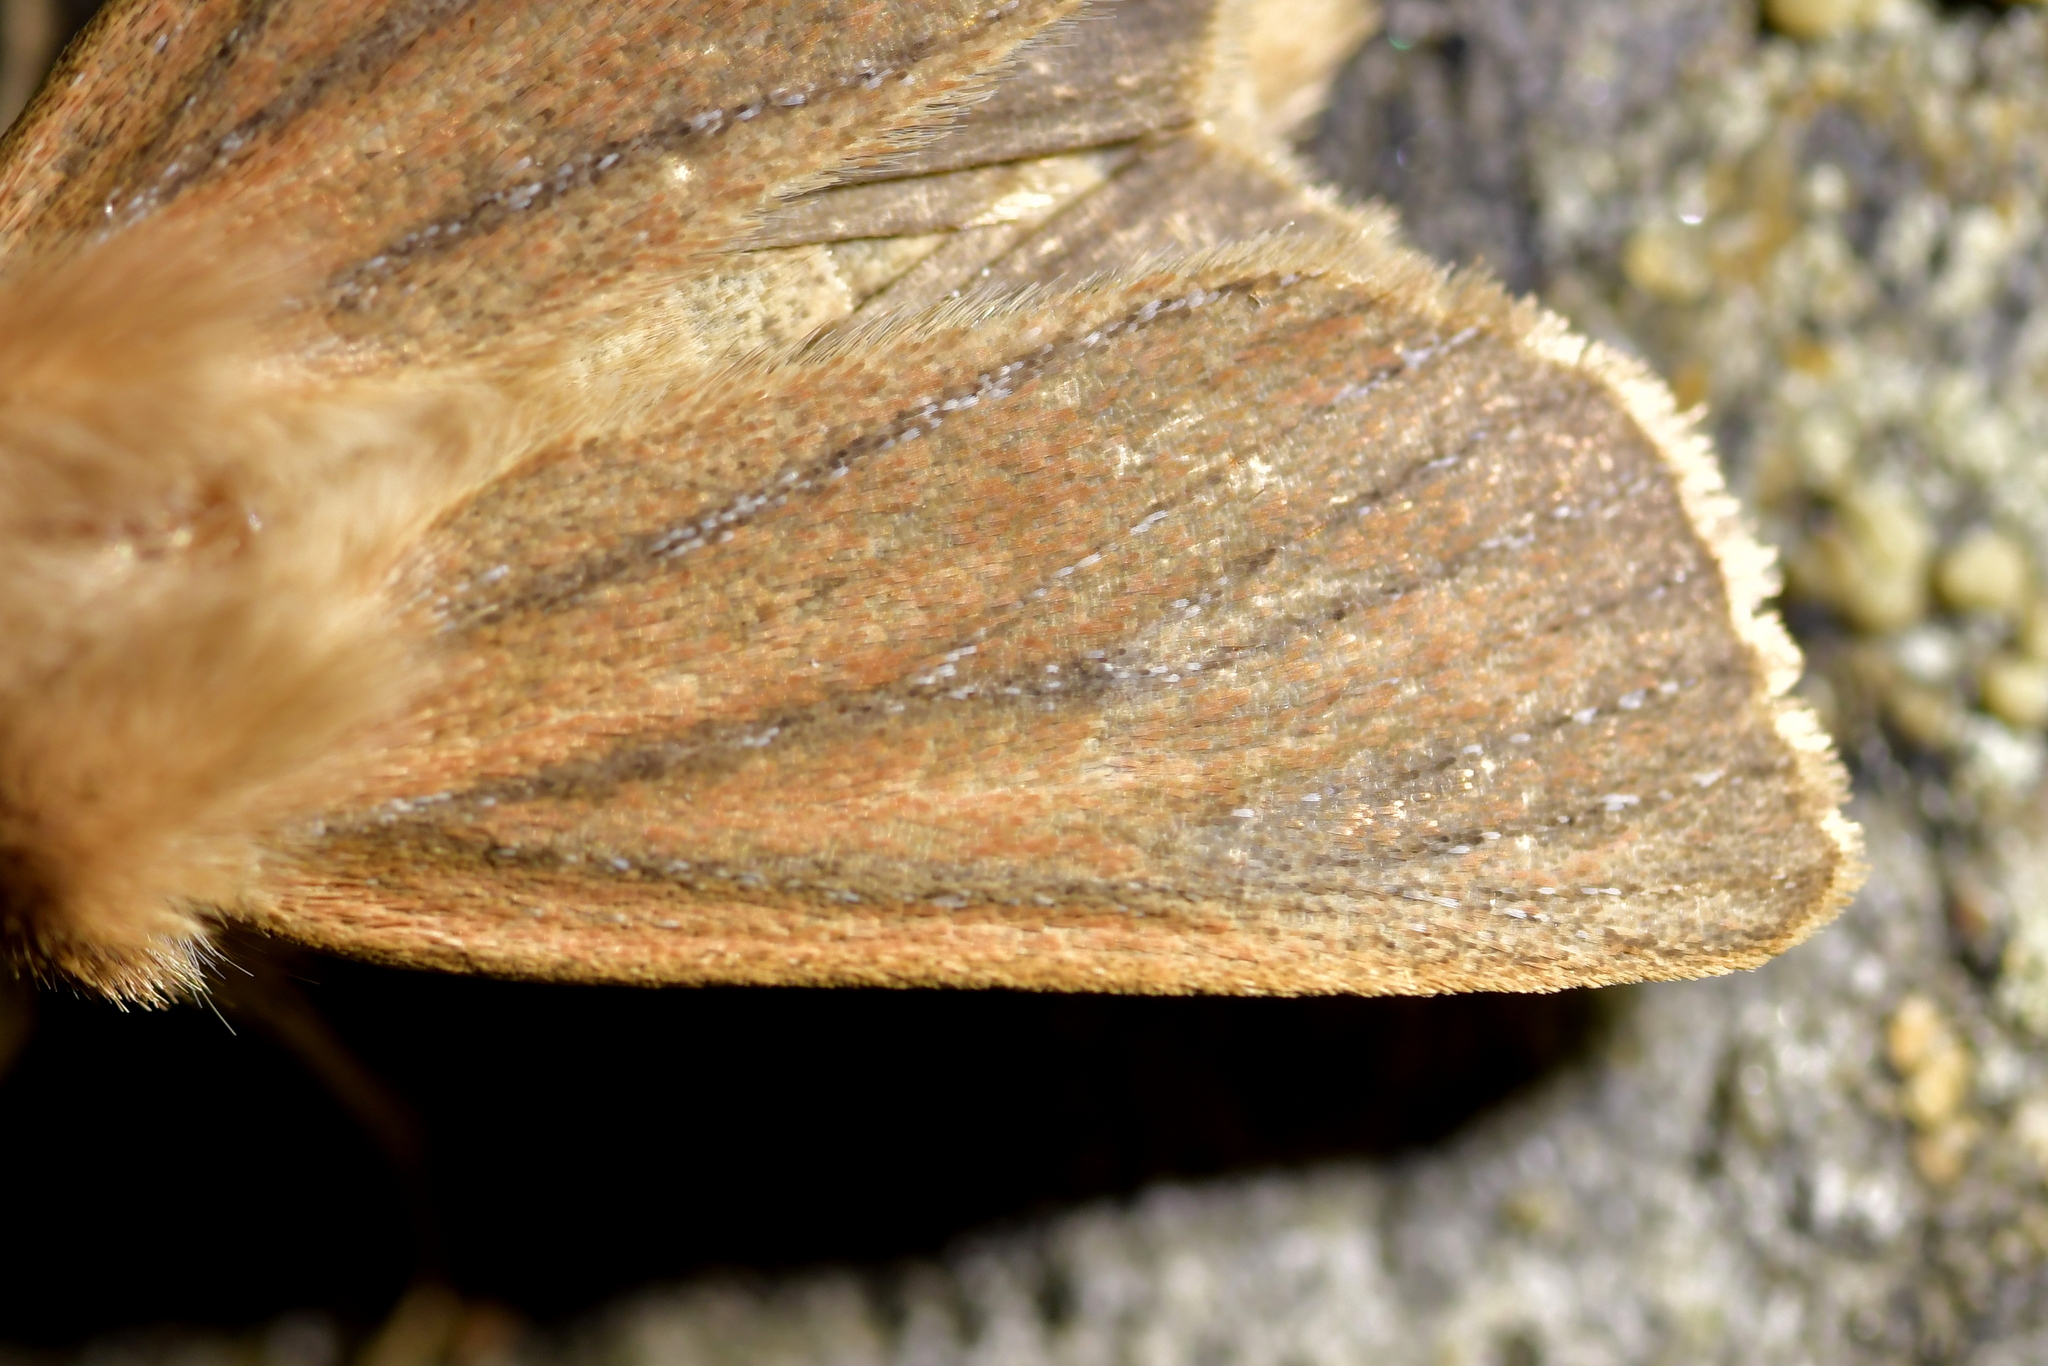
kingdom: Animalia
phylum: Arthropoda
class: Insecta
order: Lepidoptera
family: Noctuidae
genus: Ichneutica
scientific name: Ichneutica
